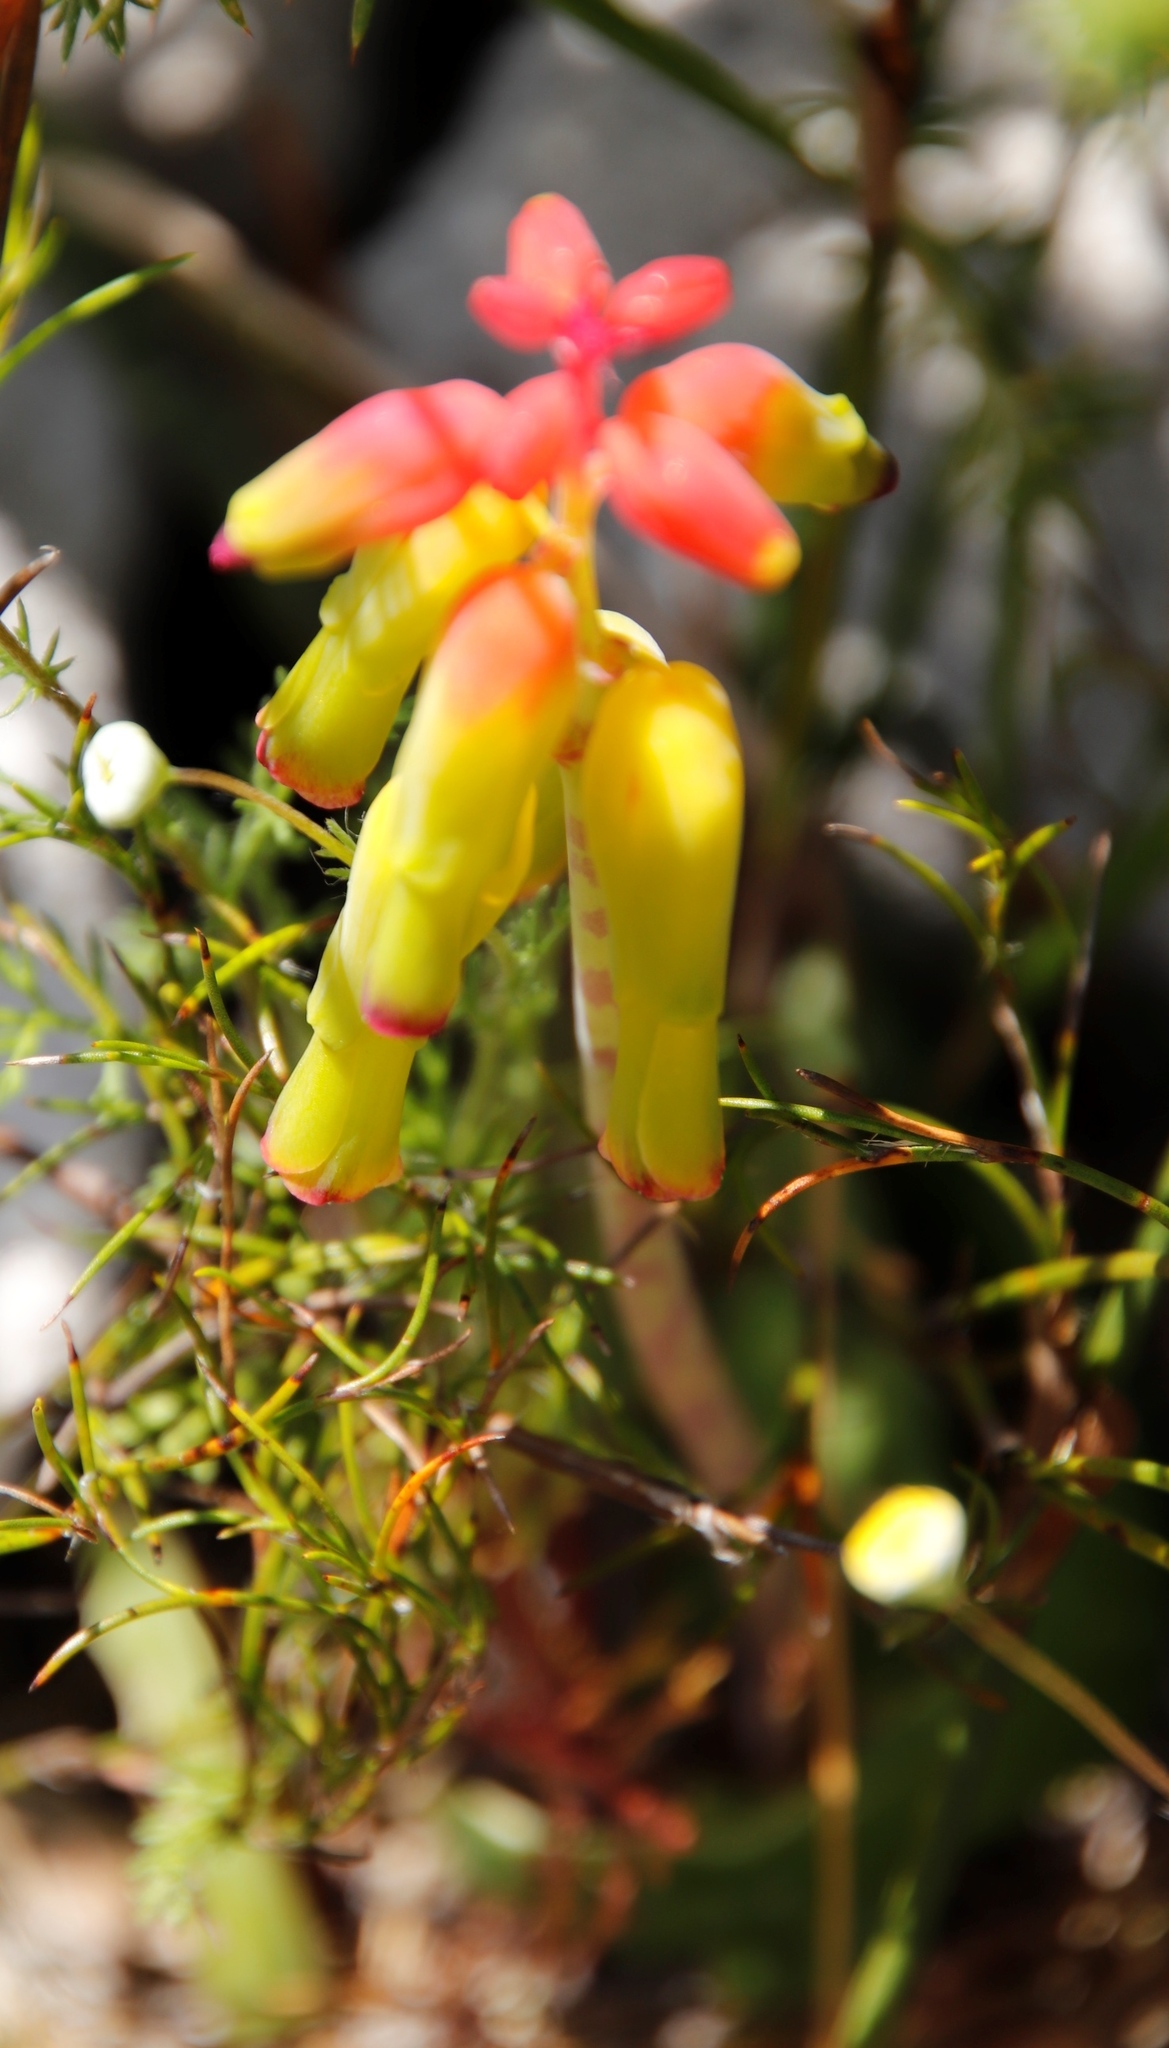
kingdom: Plantae
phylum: Tracheophyta
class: Liliopsida
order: Asparagales
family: Asparagaceae
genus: Lachenalia
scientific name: Lachenalia luteola
